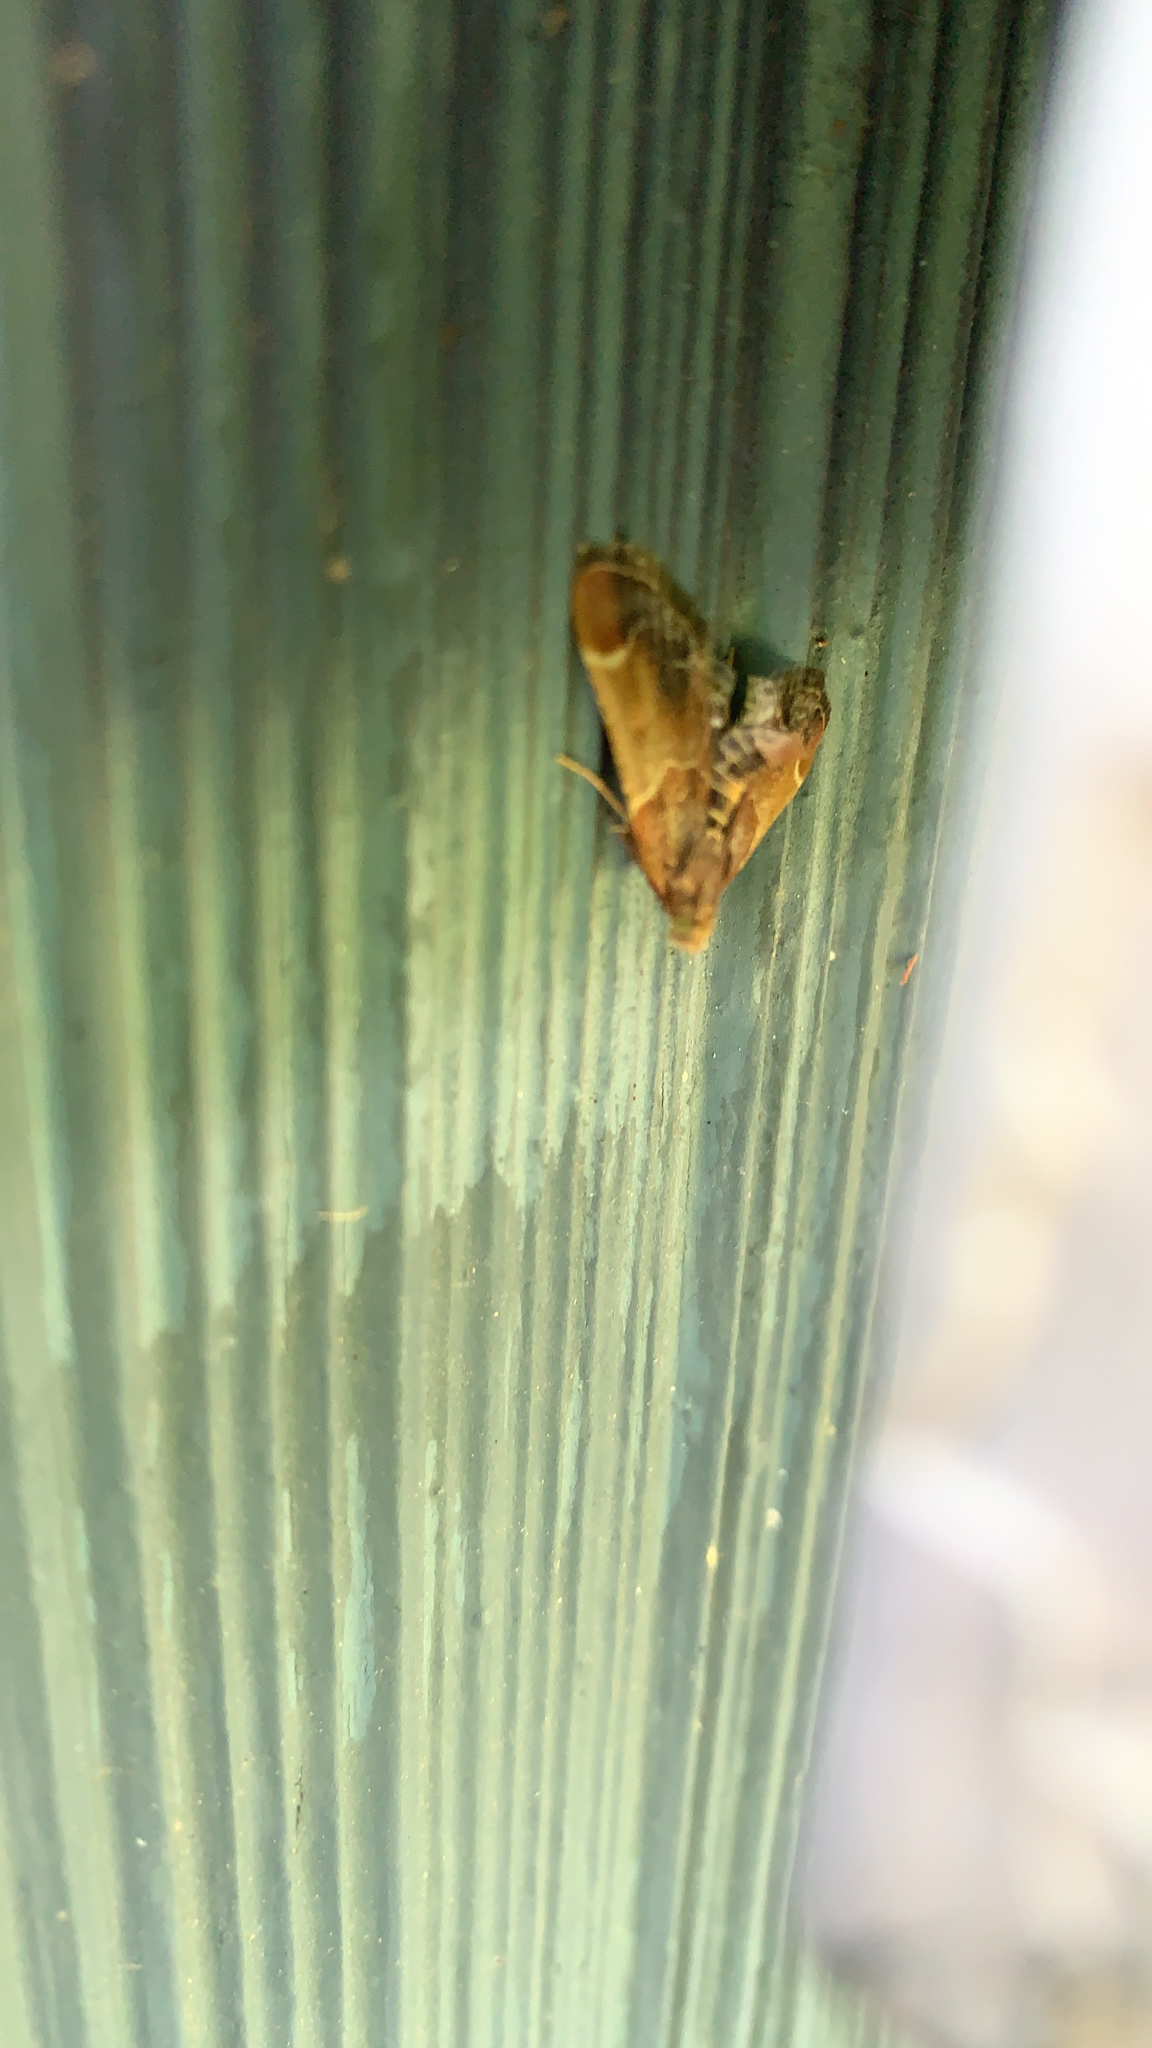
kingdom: Animalia
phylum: Arthropoda
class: Insecta
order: Lepidoptera
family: Pyralidae
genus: Pyralis
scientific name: Pyralis farinalis
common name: Meal moth
